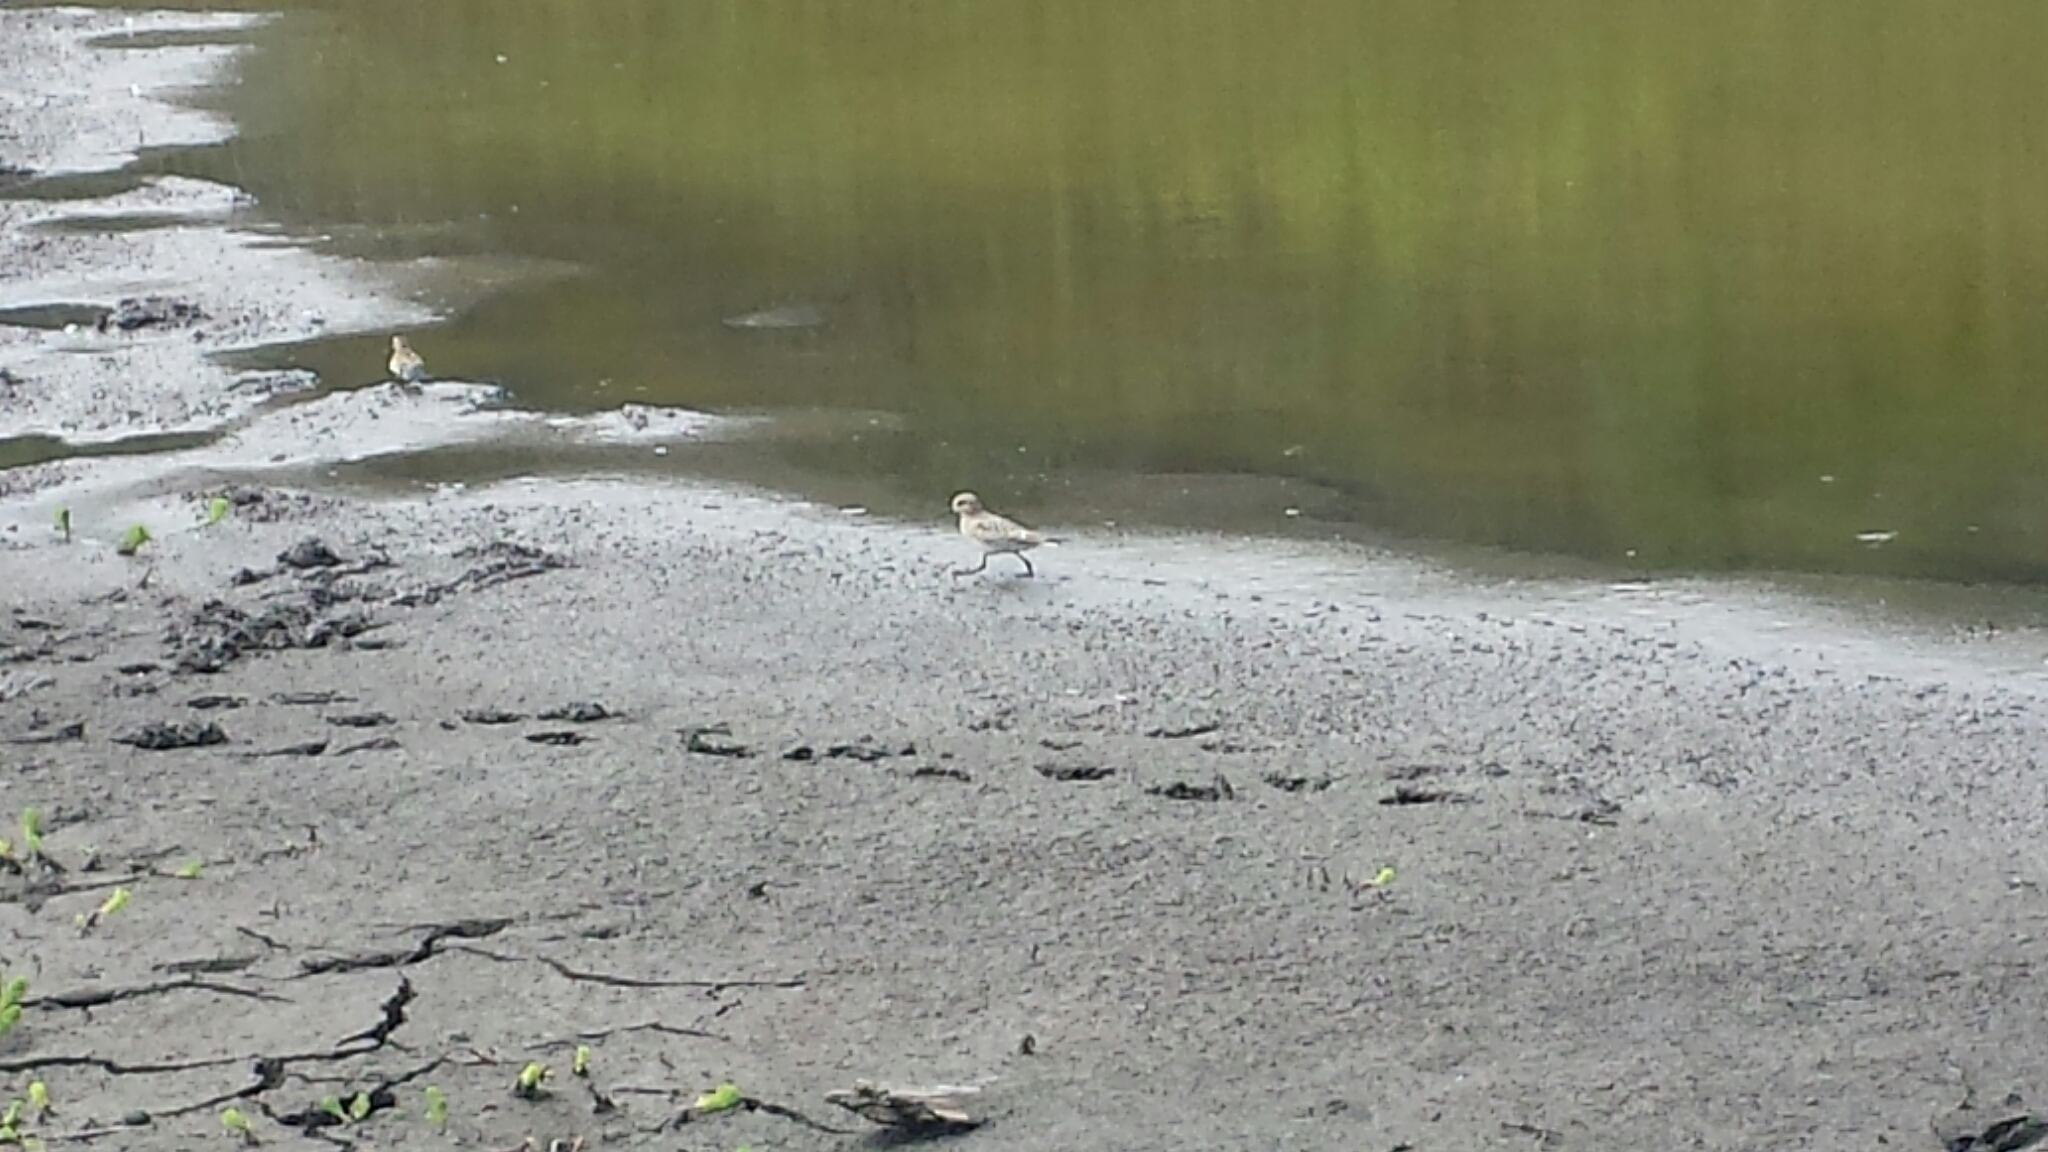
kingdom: Animalia
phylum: Chordata
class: Aves
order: Charadriiformes
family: Scolopacidae
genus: Calidris
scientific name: Calidris alba
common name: Sanderling
